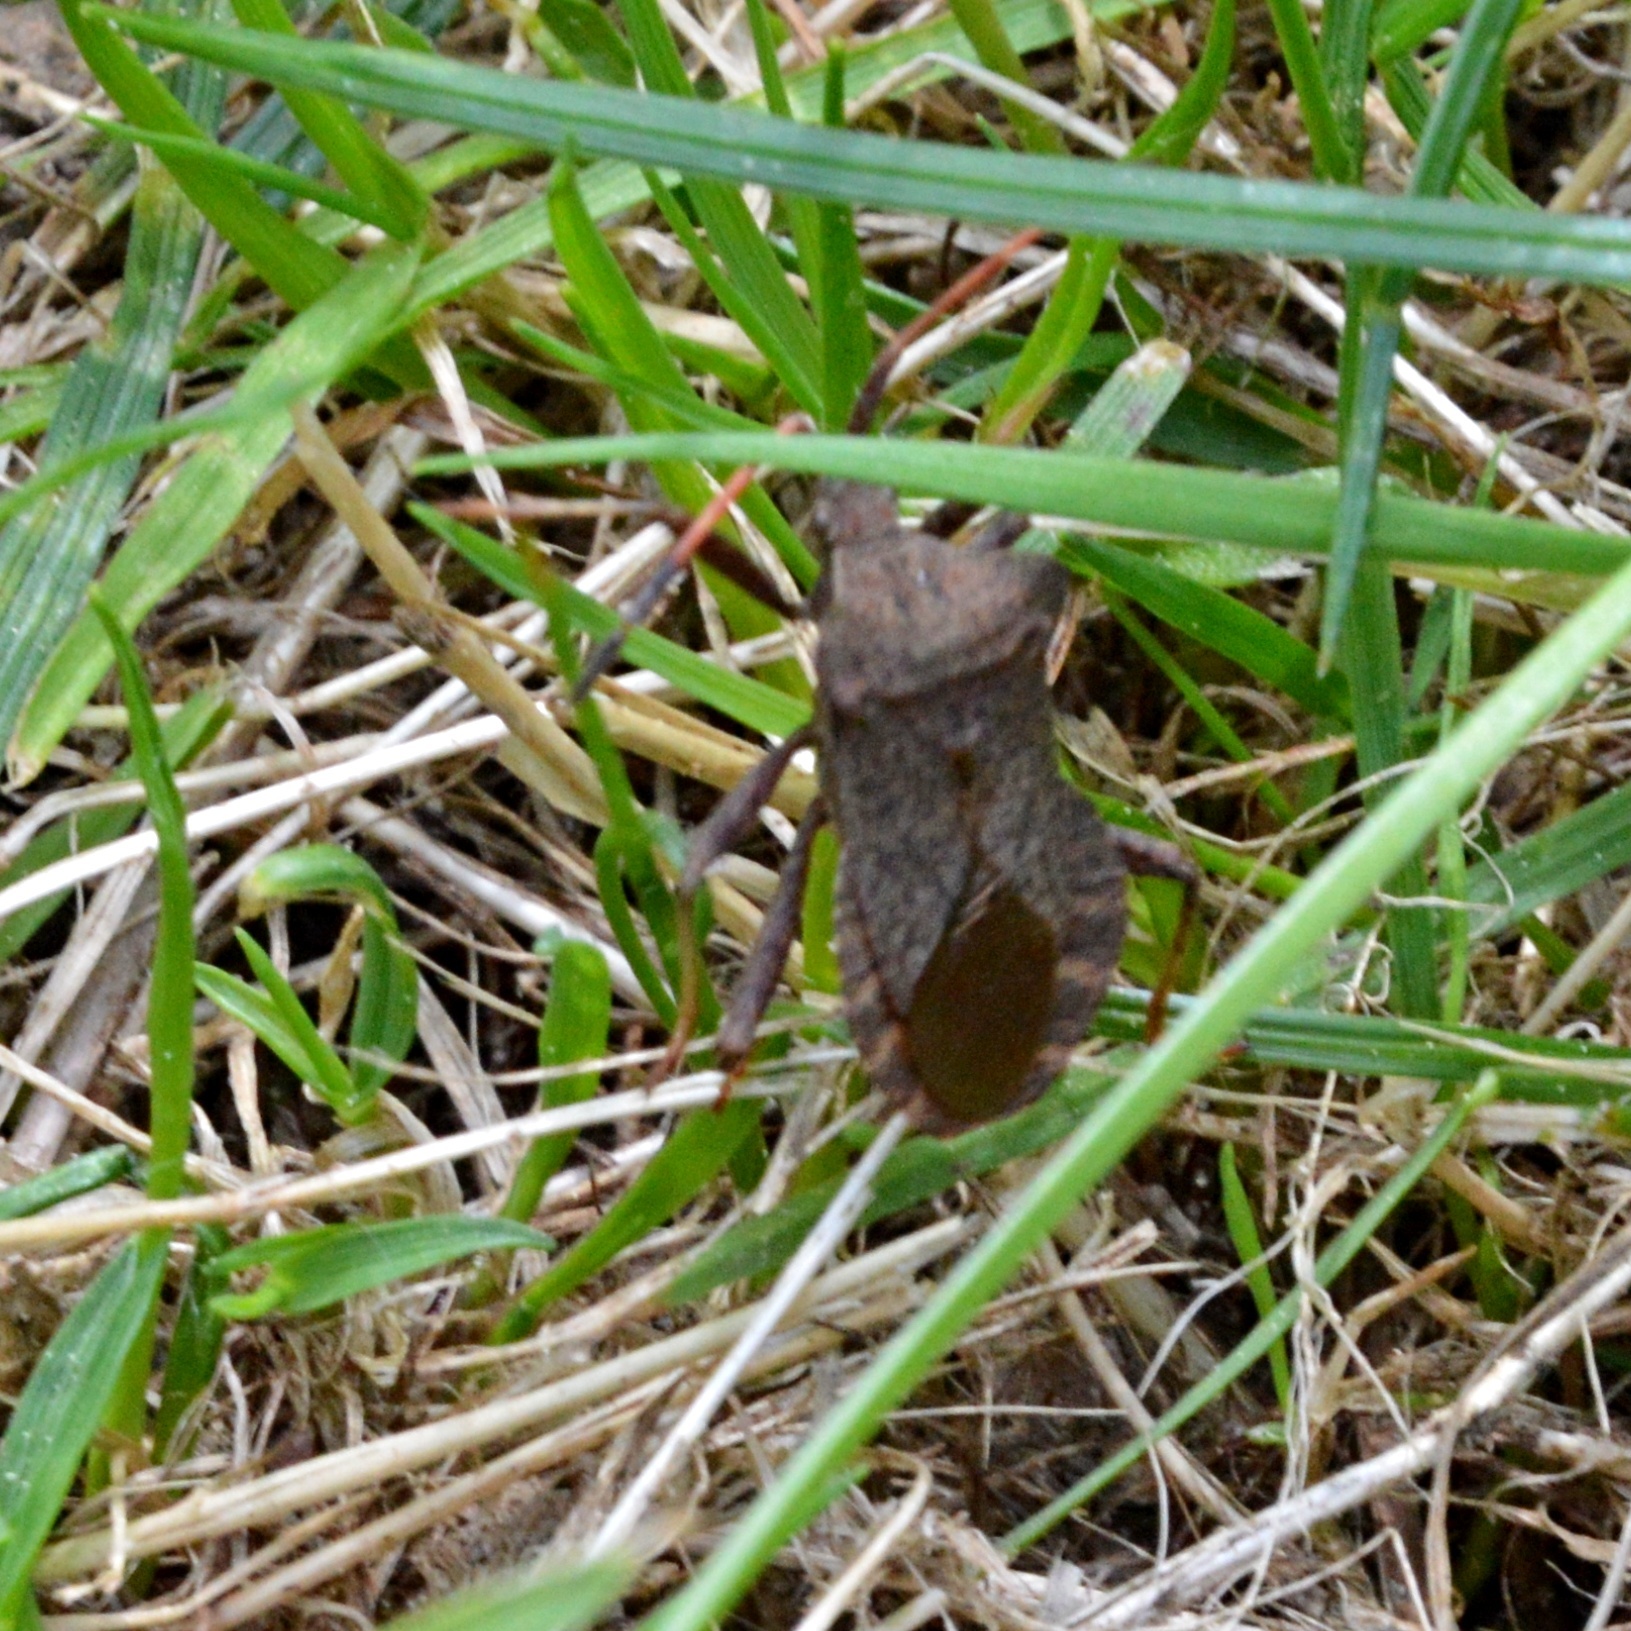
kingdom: Animalia
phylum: Arthropoda
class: Insecta
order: Hemiptera
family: Coreidae
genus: Coreus
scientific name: Coreus marginatus
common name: Dock bug
